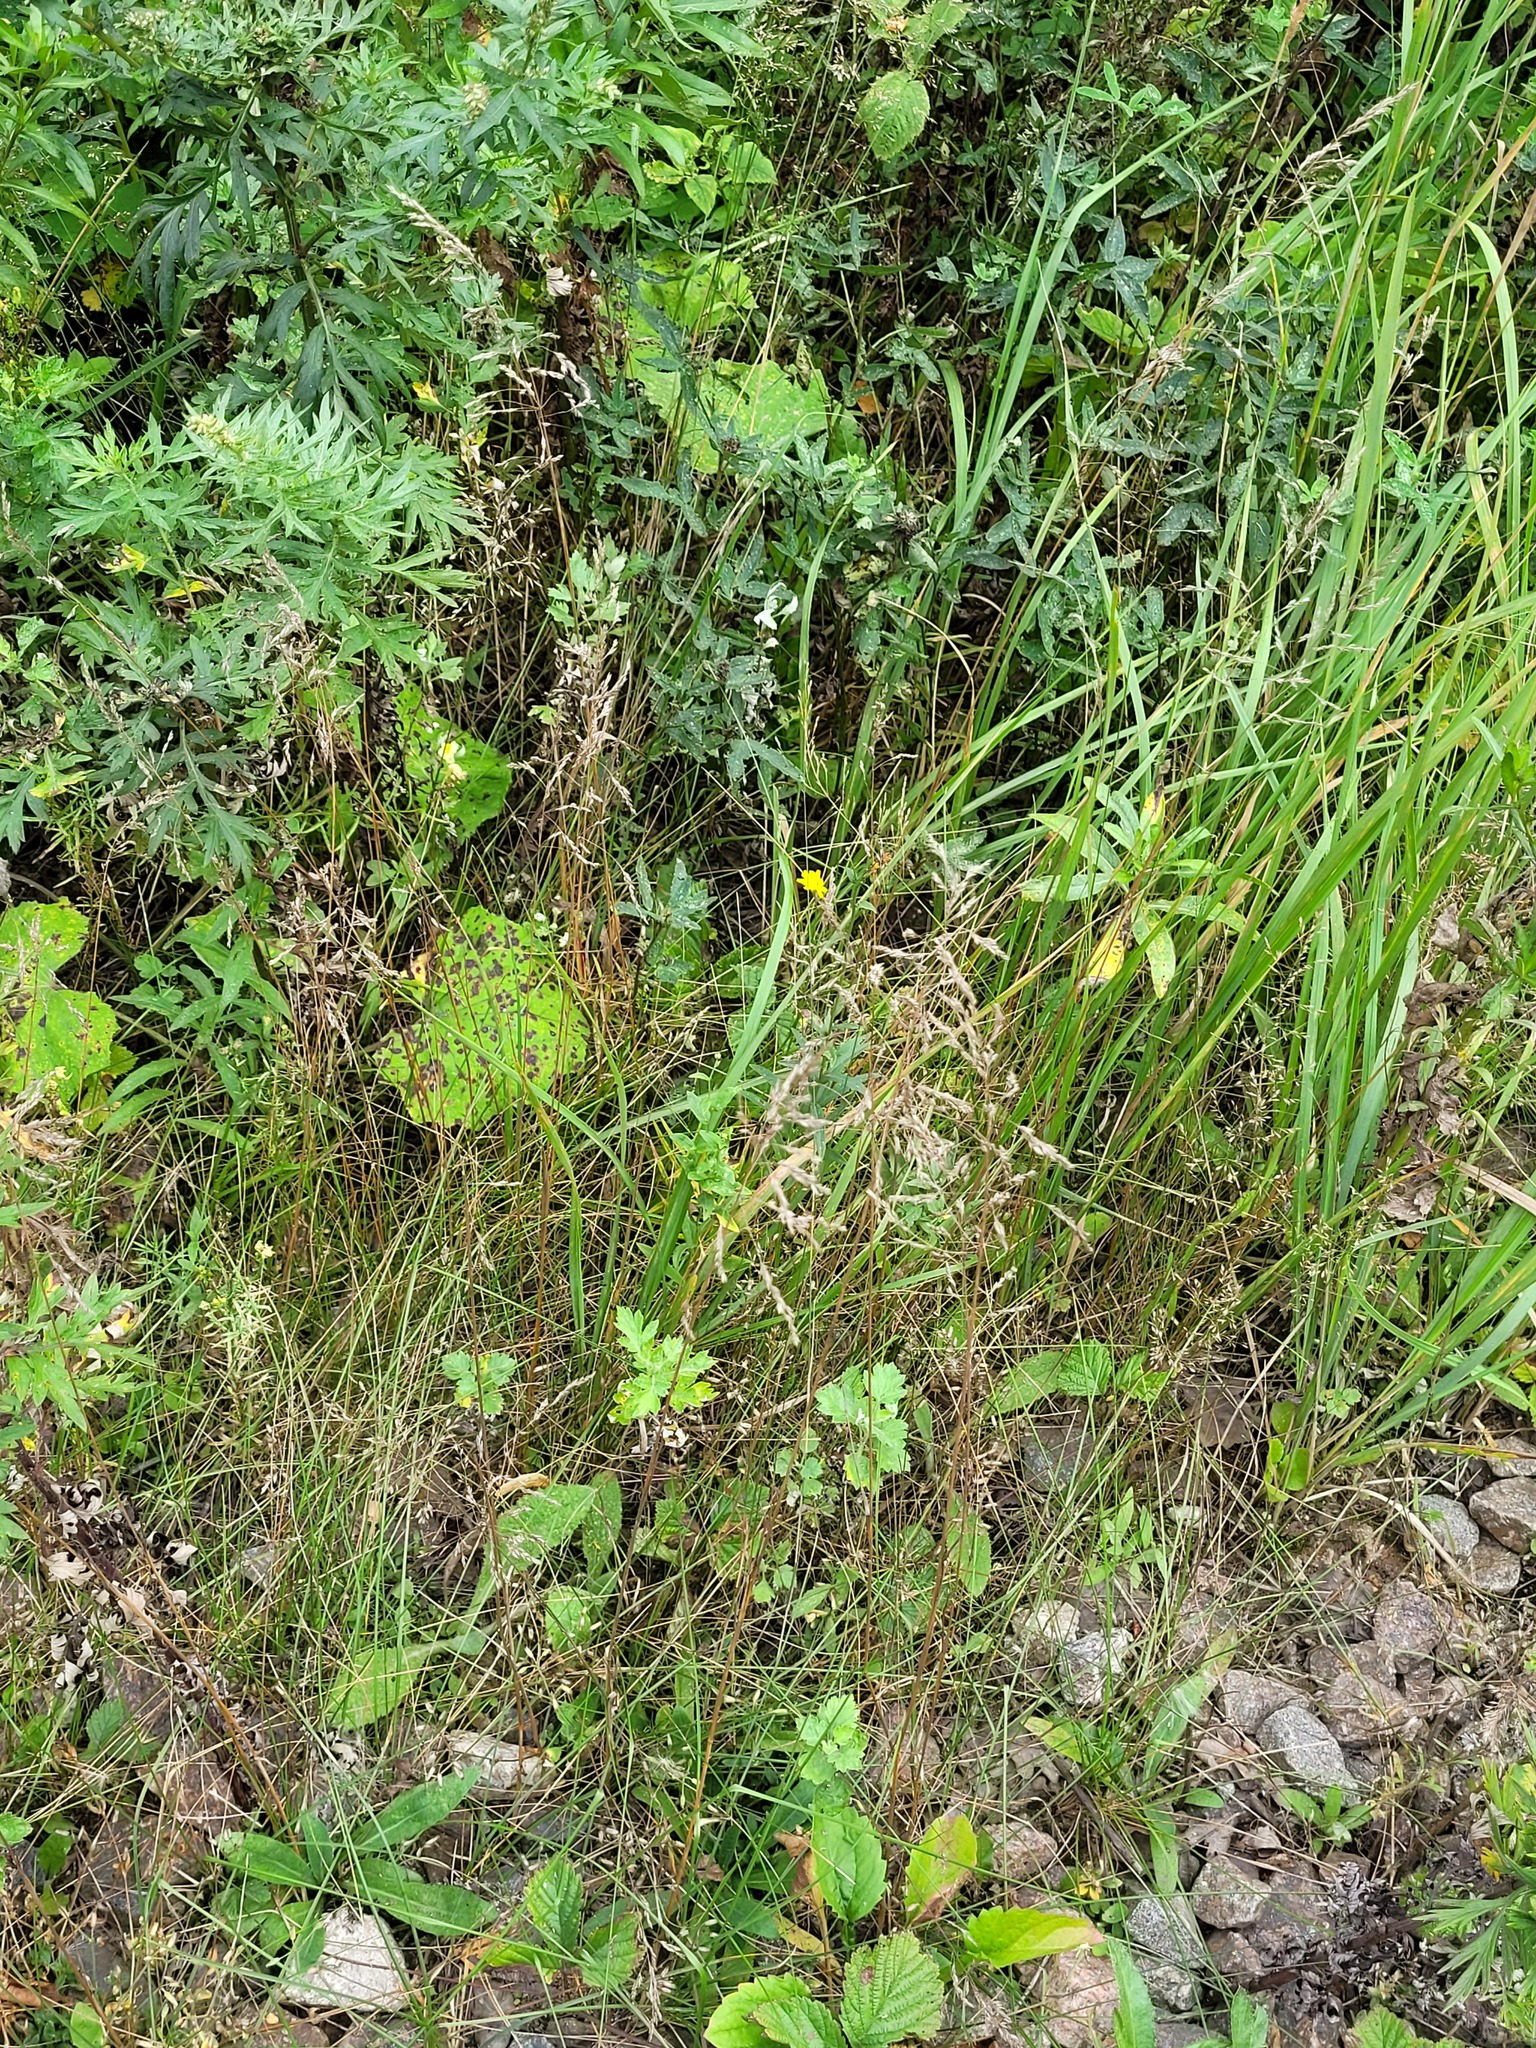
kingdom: Plantae
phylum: Tracheophyta
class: Liliopsida
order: Poales
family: Poaceae
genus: Poa
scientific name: Poa angustifolia
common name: Narrow-leaved meadow-grass
